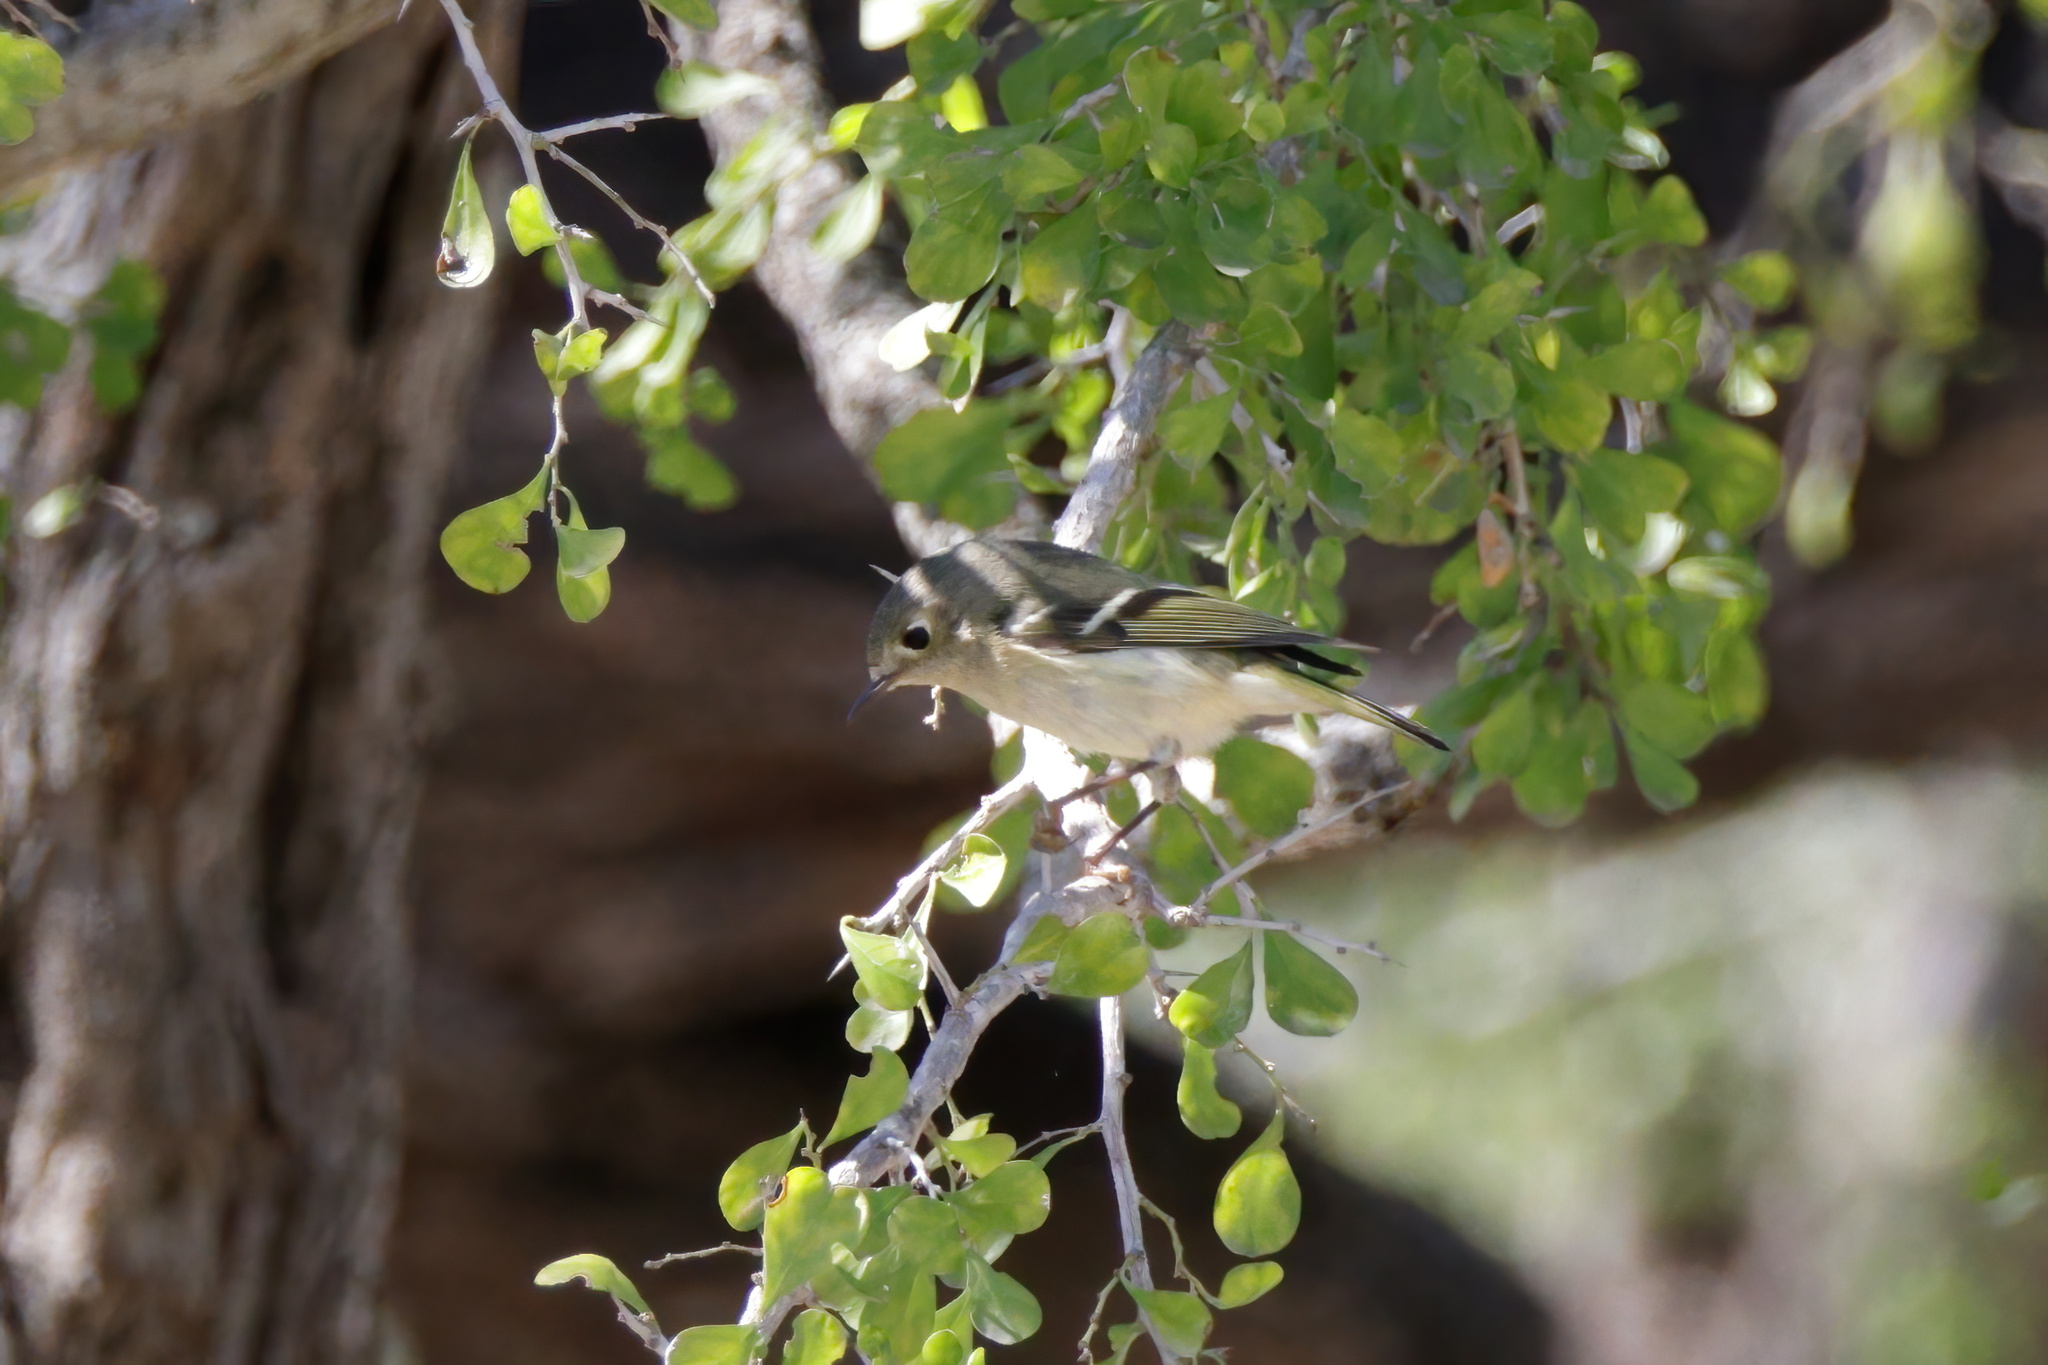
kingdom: Animalia
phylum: Chordata
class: Aves
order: Passeriformes
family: Regulidae
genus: Regulus
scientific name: Regulus calendula
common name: Ruby-crowned kinglet
